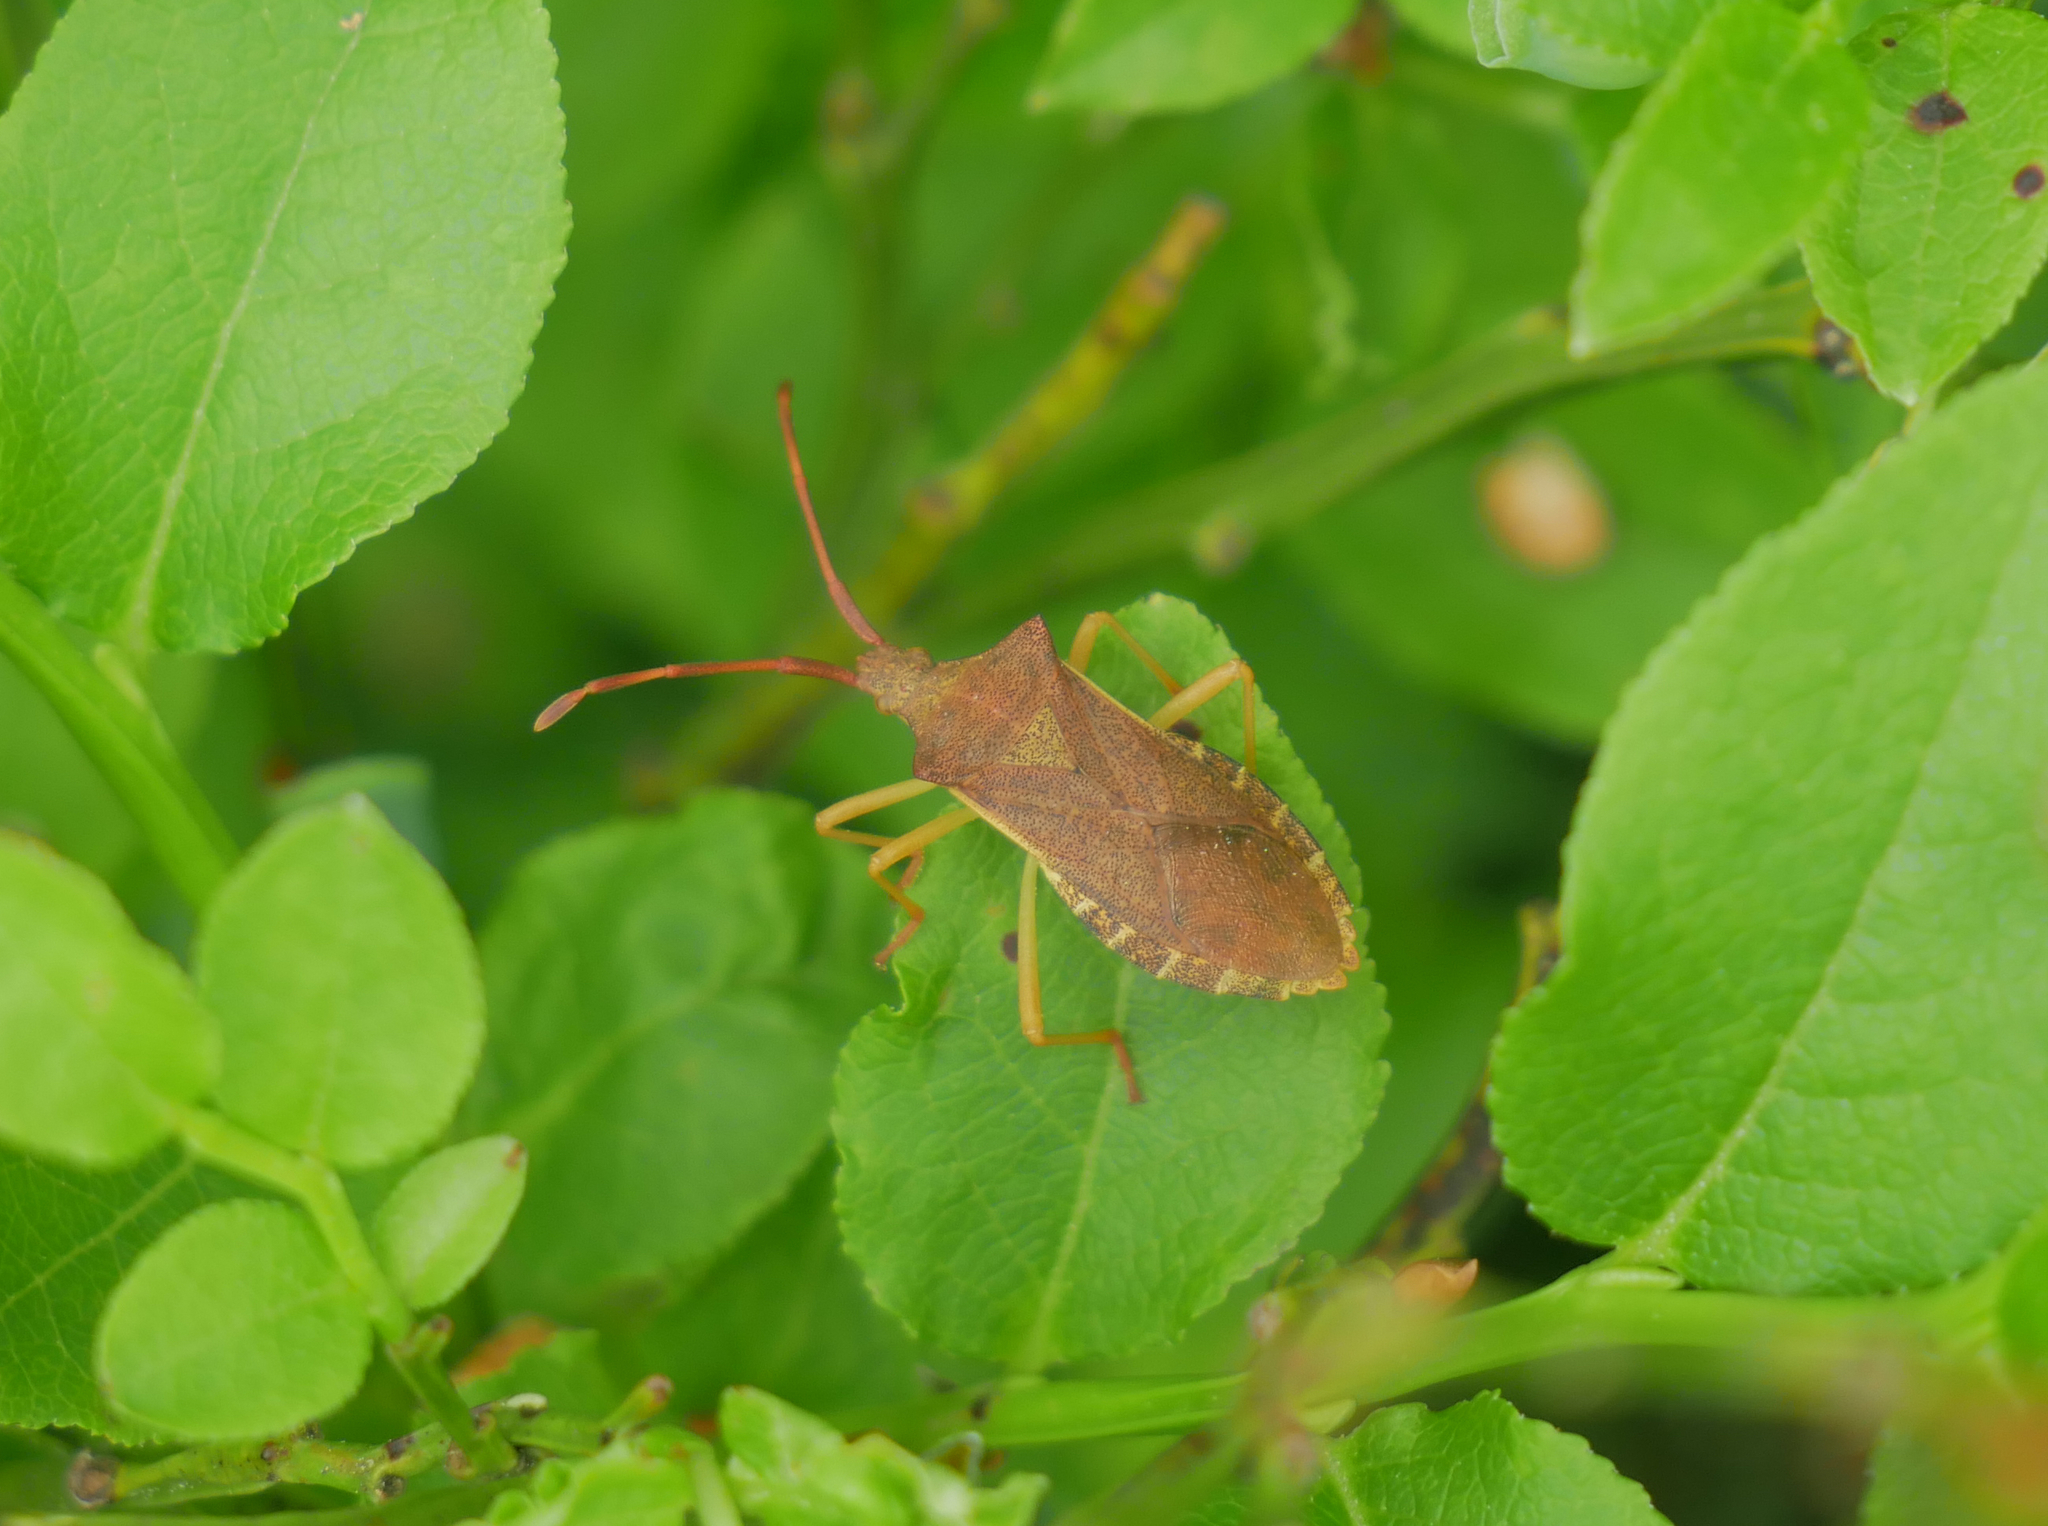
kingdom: Animalia
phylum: Arthropoda
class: Insecta
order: Hemiptera
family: Coreidae
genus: Gonocerus
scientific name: Gonocerus acuteangulatus
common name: Box bug
